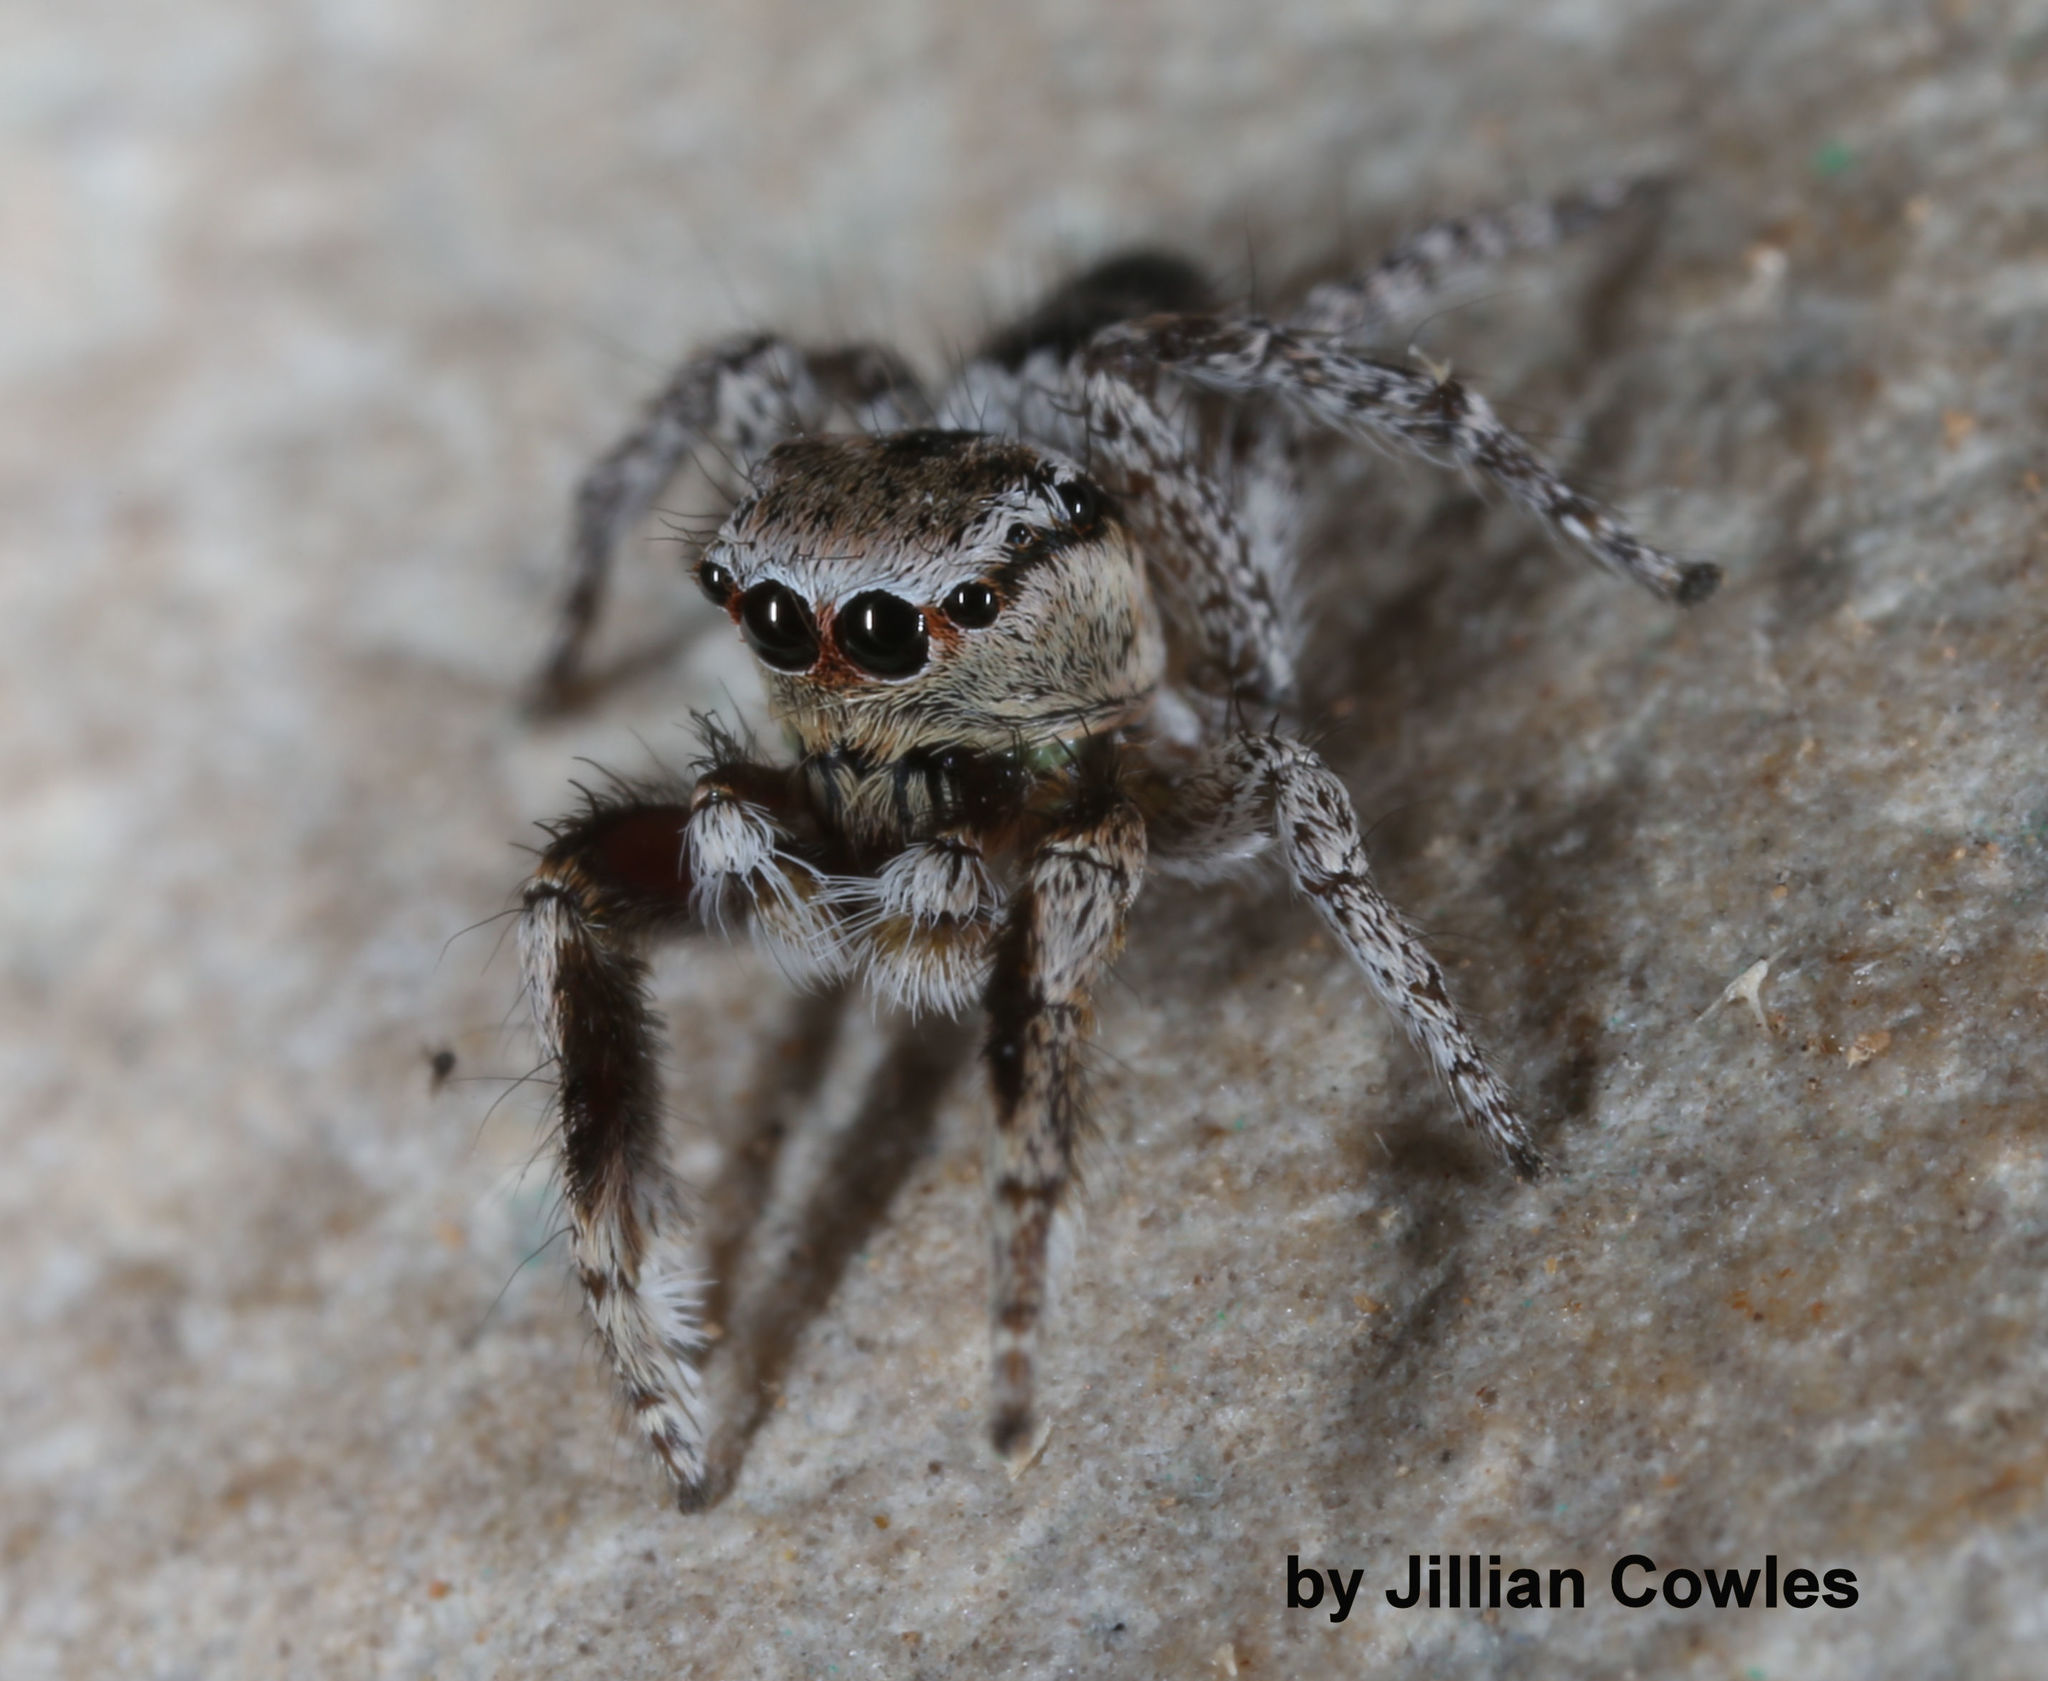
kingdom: Animalia
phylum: Arthropoda
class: Arachnida
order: Araneae
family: Salticidae
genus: Habronattus
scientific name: Habronattus tranquillus
